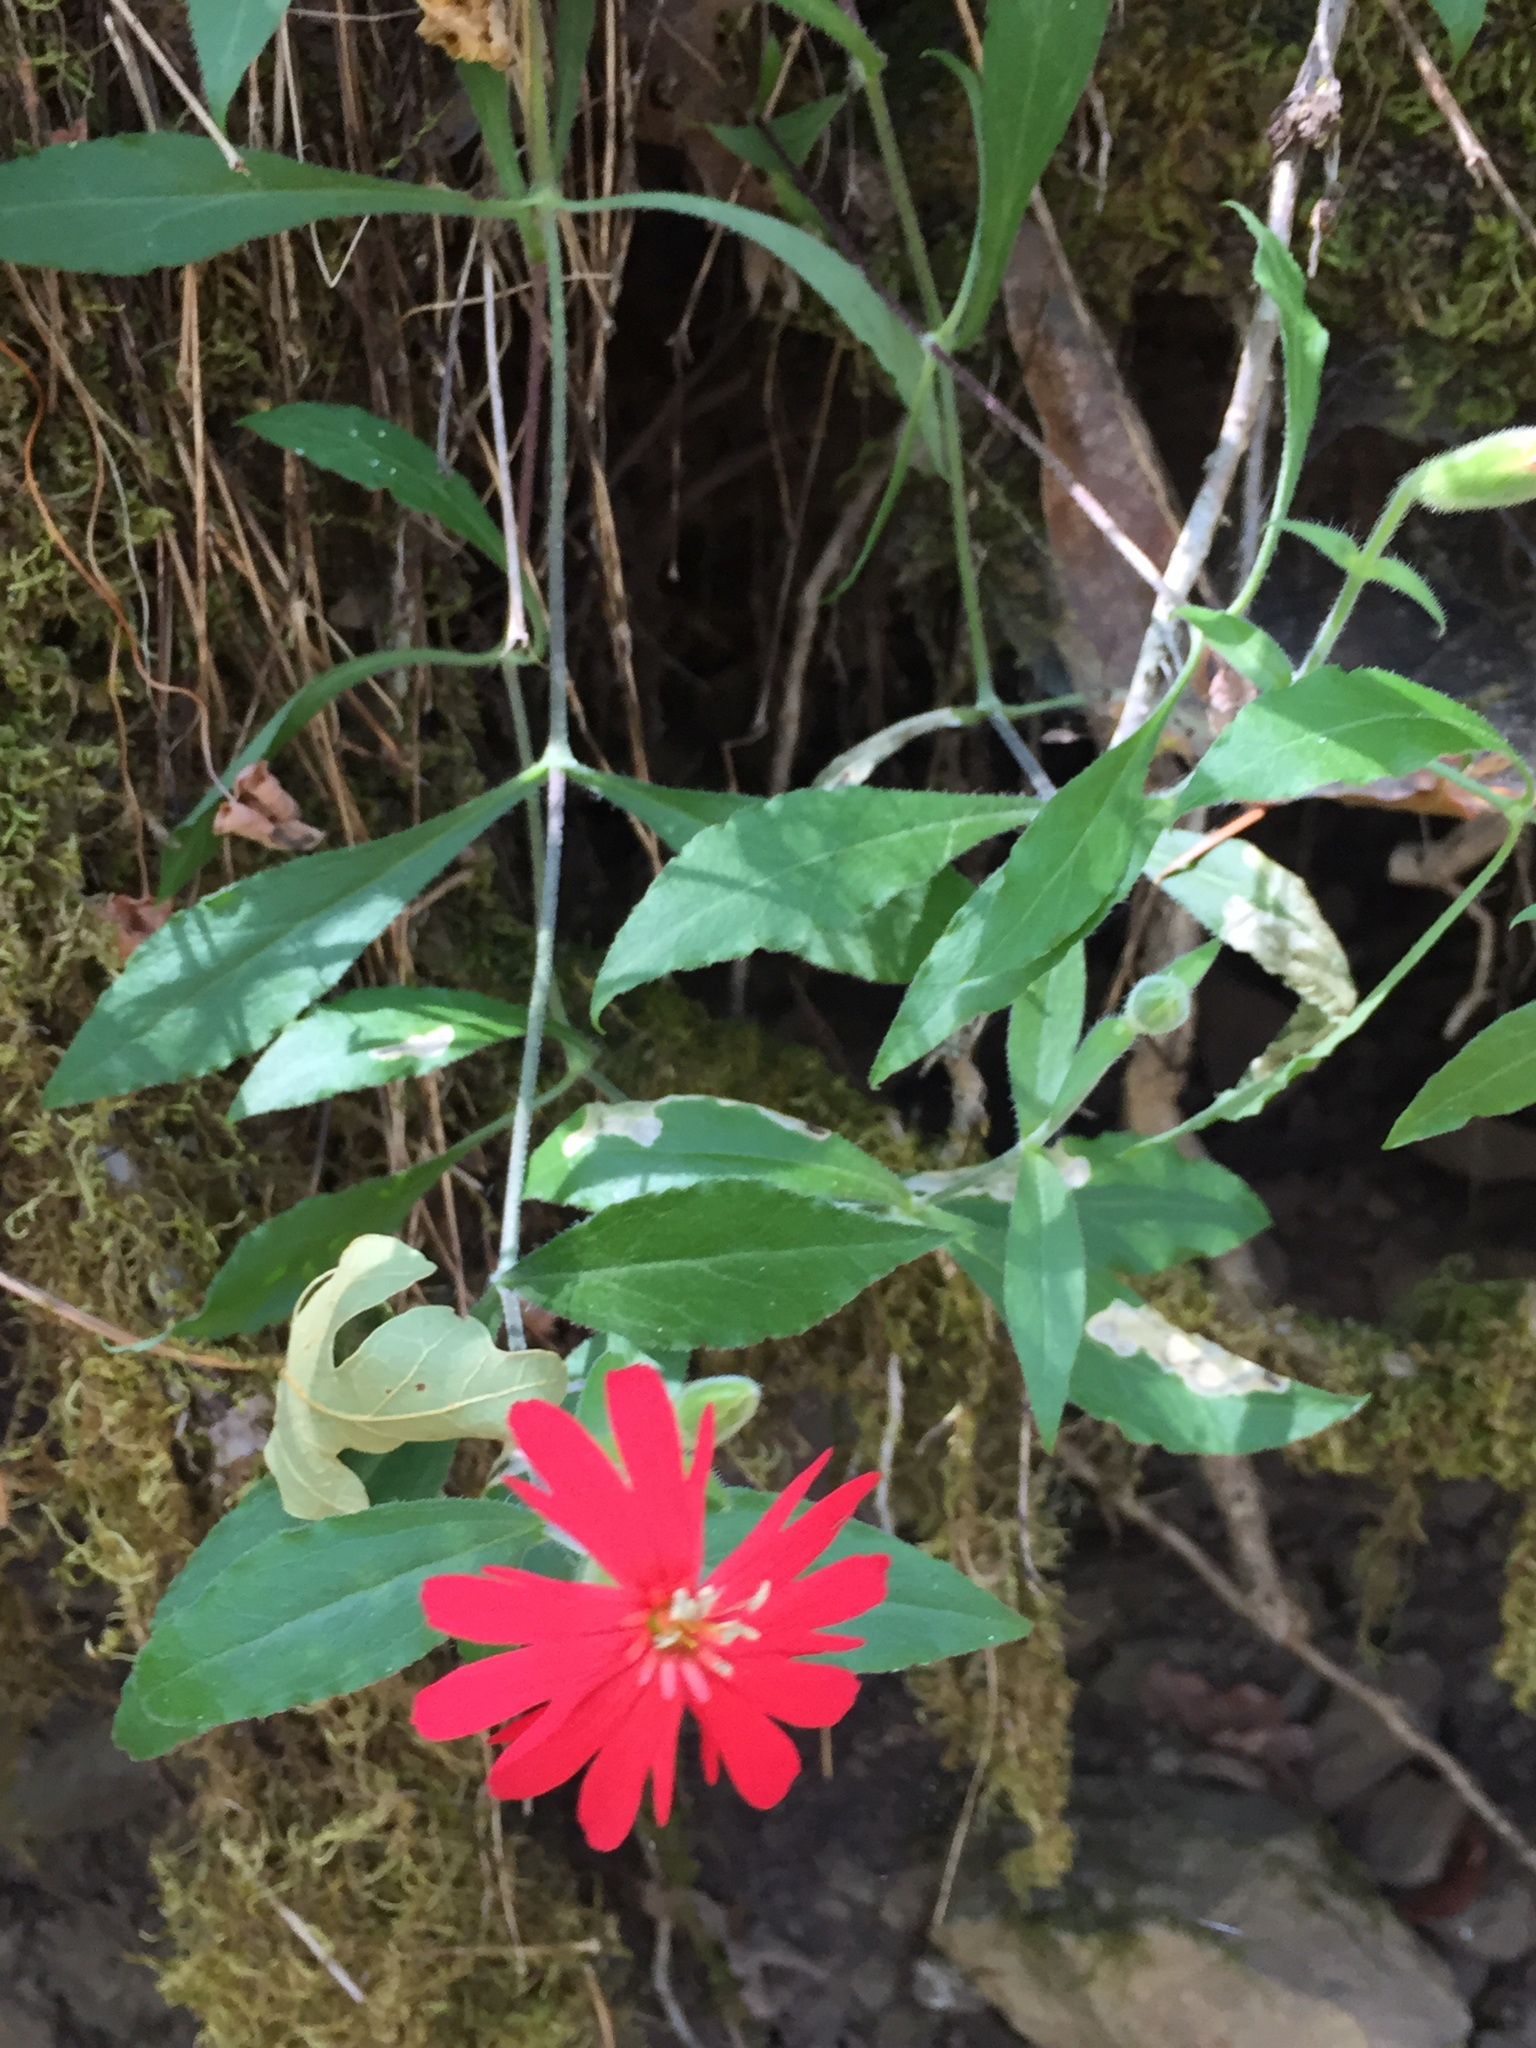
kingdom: Plantae
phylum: Tracheophyta
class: Magnoliopsida
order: Caryophyllales
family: Caryophyllaceae
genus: Silene
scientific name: Silene laciniata
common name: Indian-pink
